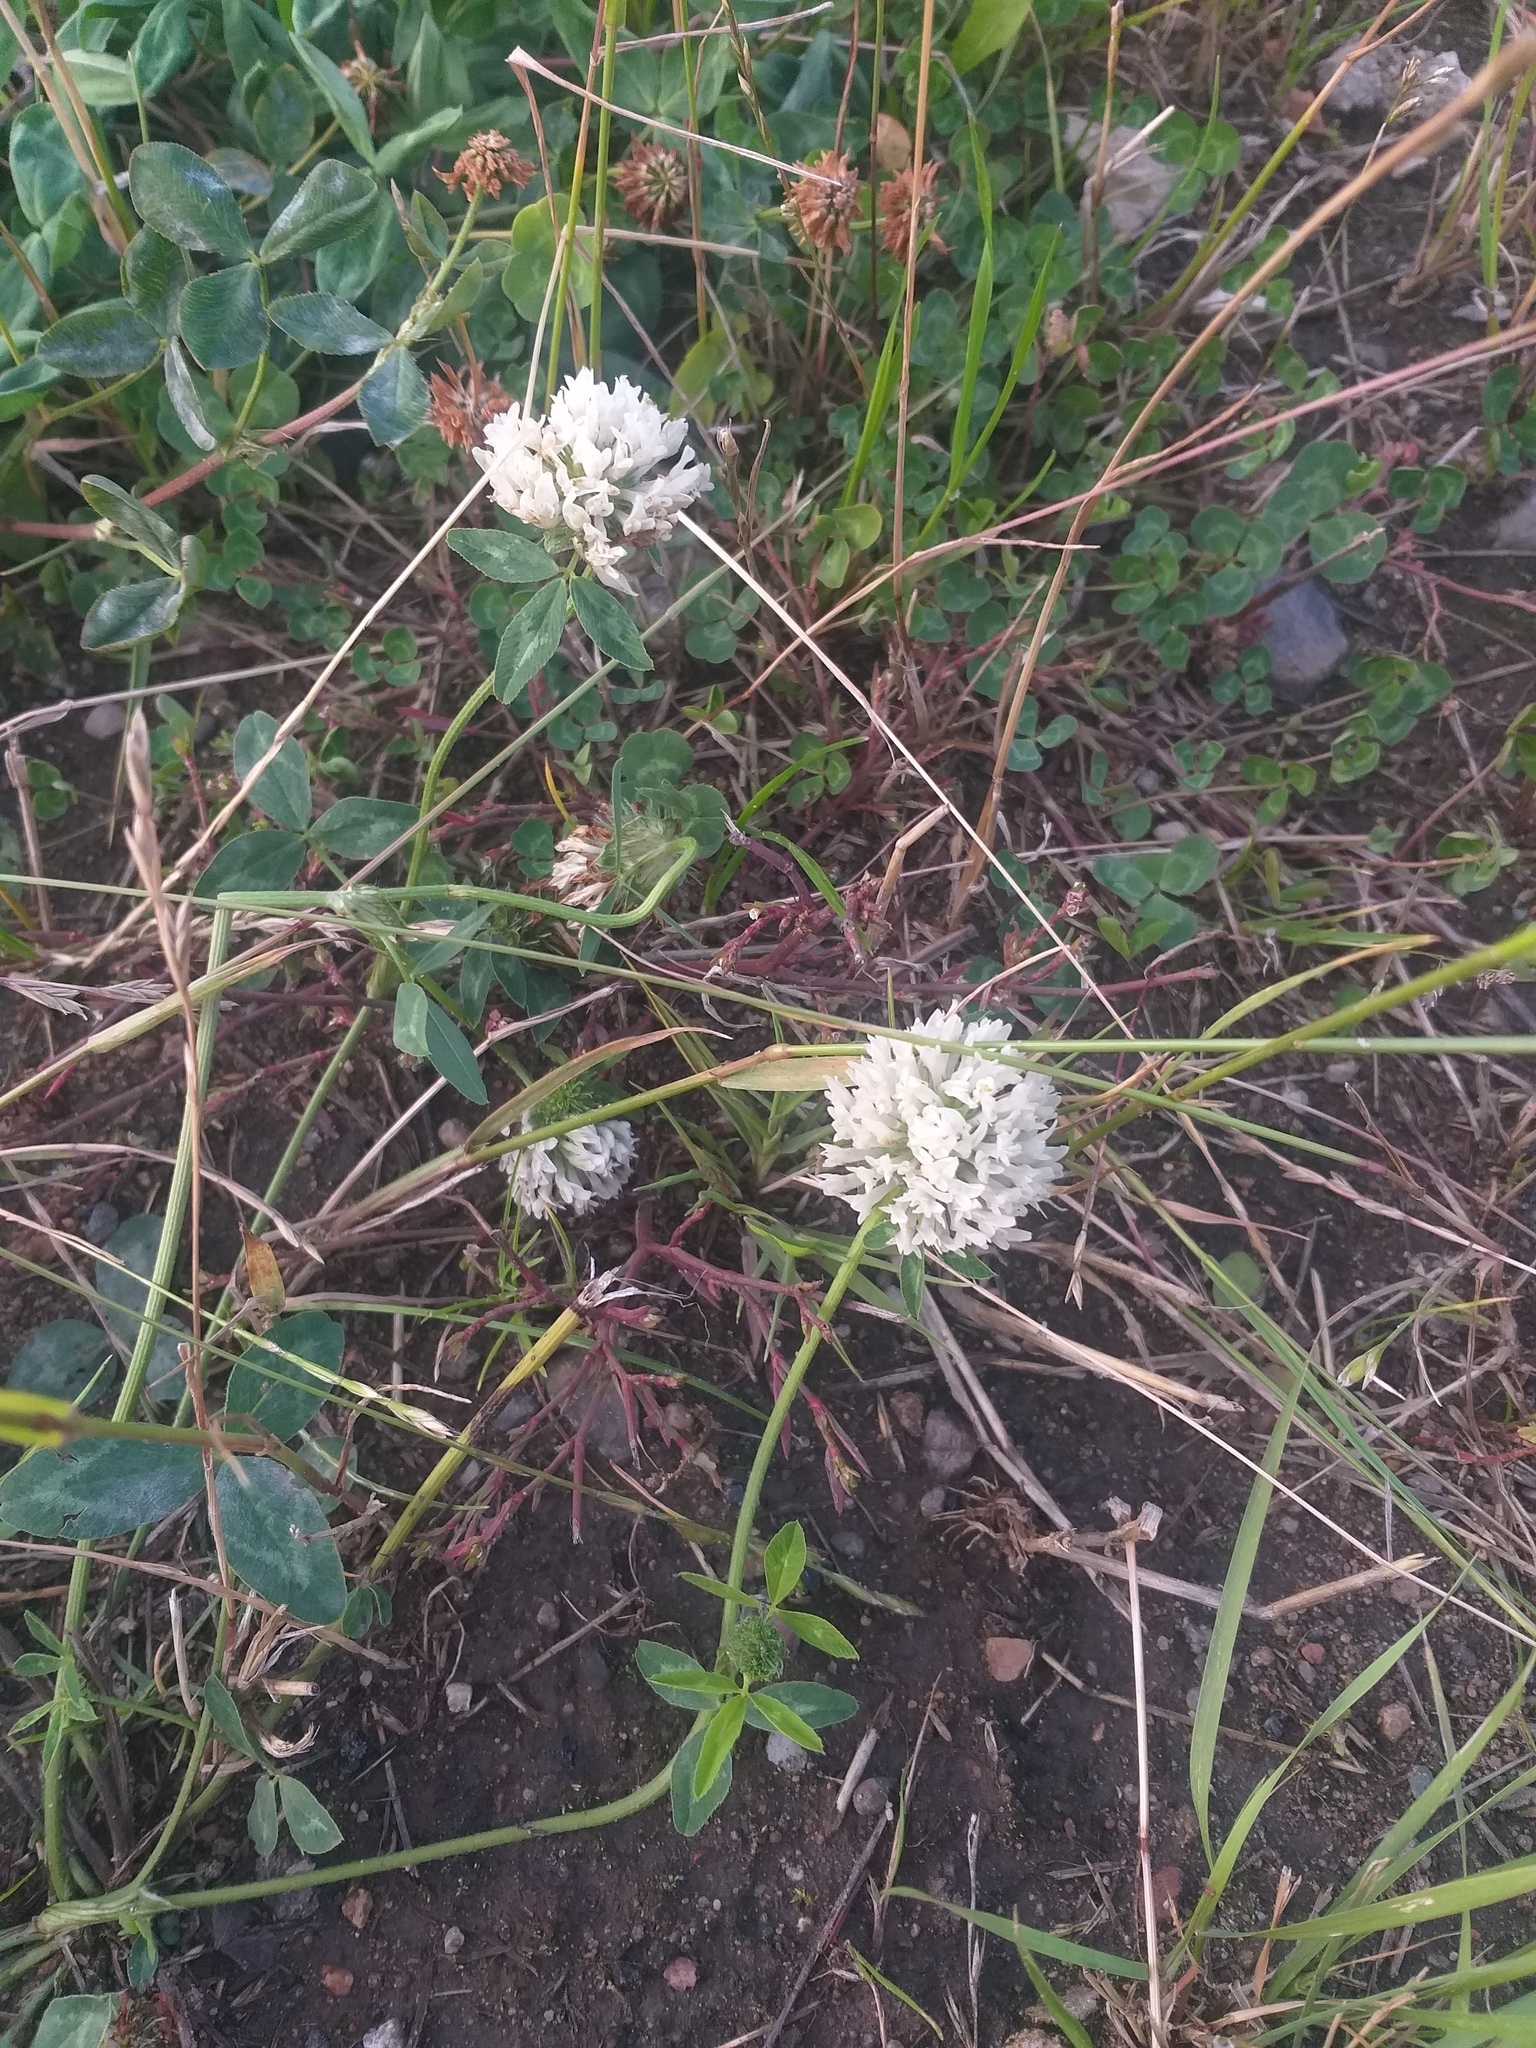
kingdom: Plantae
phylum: Tracheophyta
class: Magnoliopsida
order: Fabales
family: Fabaceae
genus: Trifolium
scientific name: Trifolium pratense
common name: Red clover
